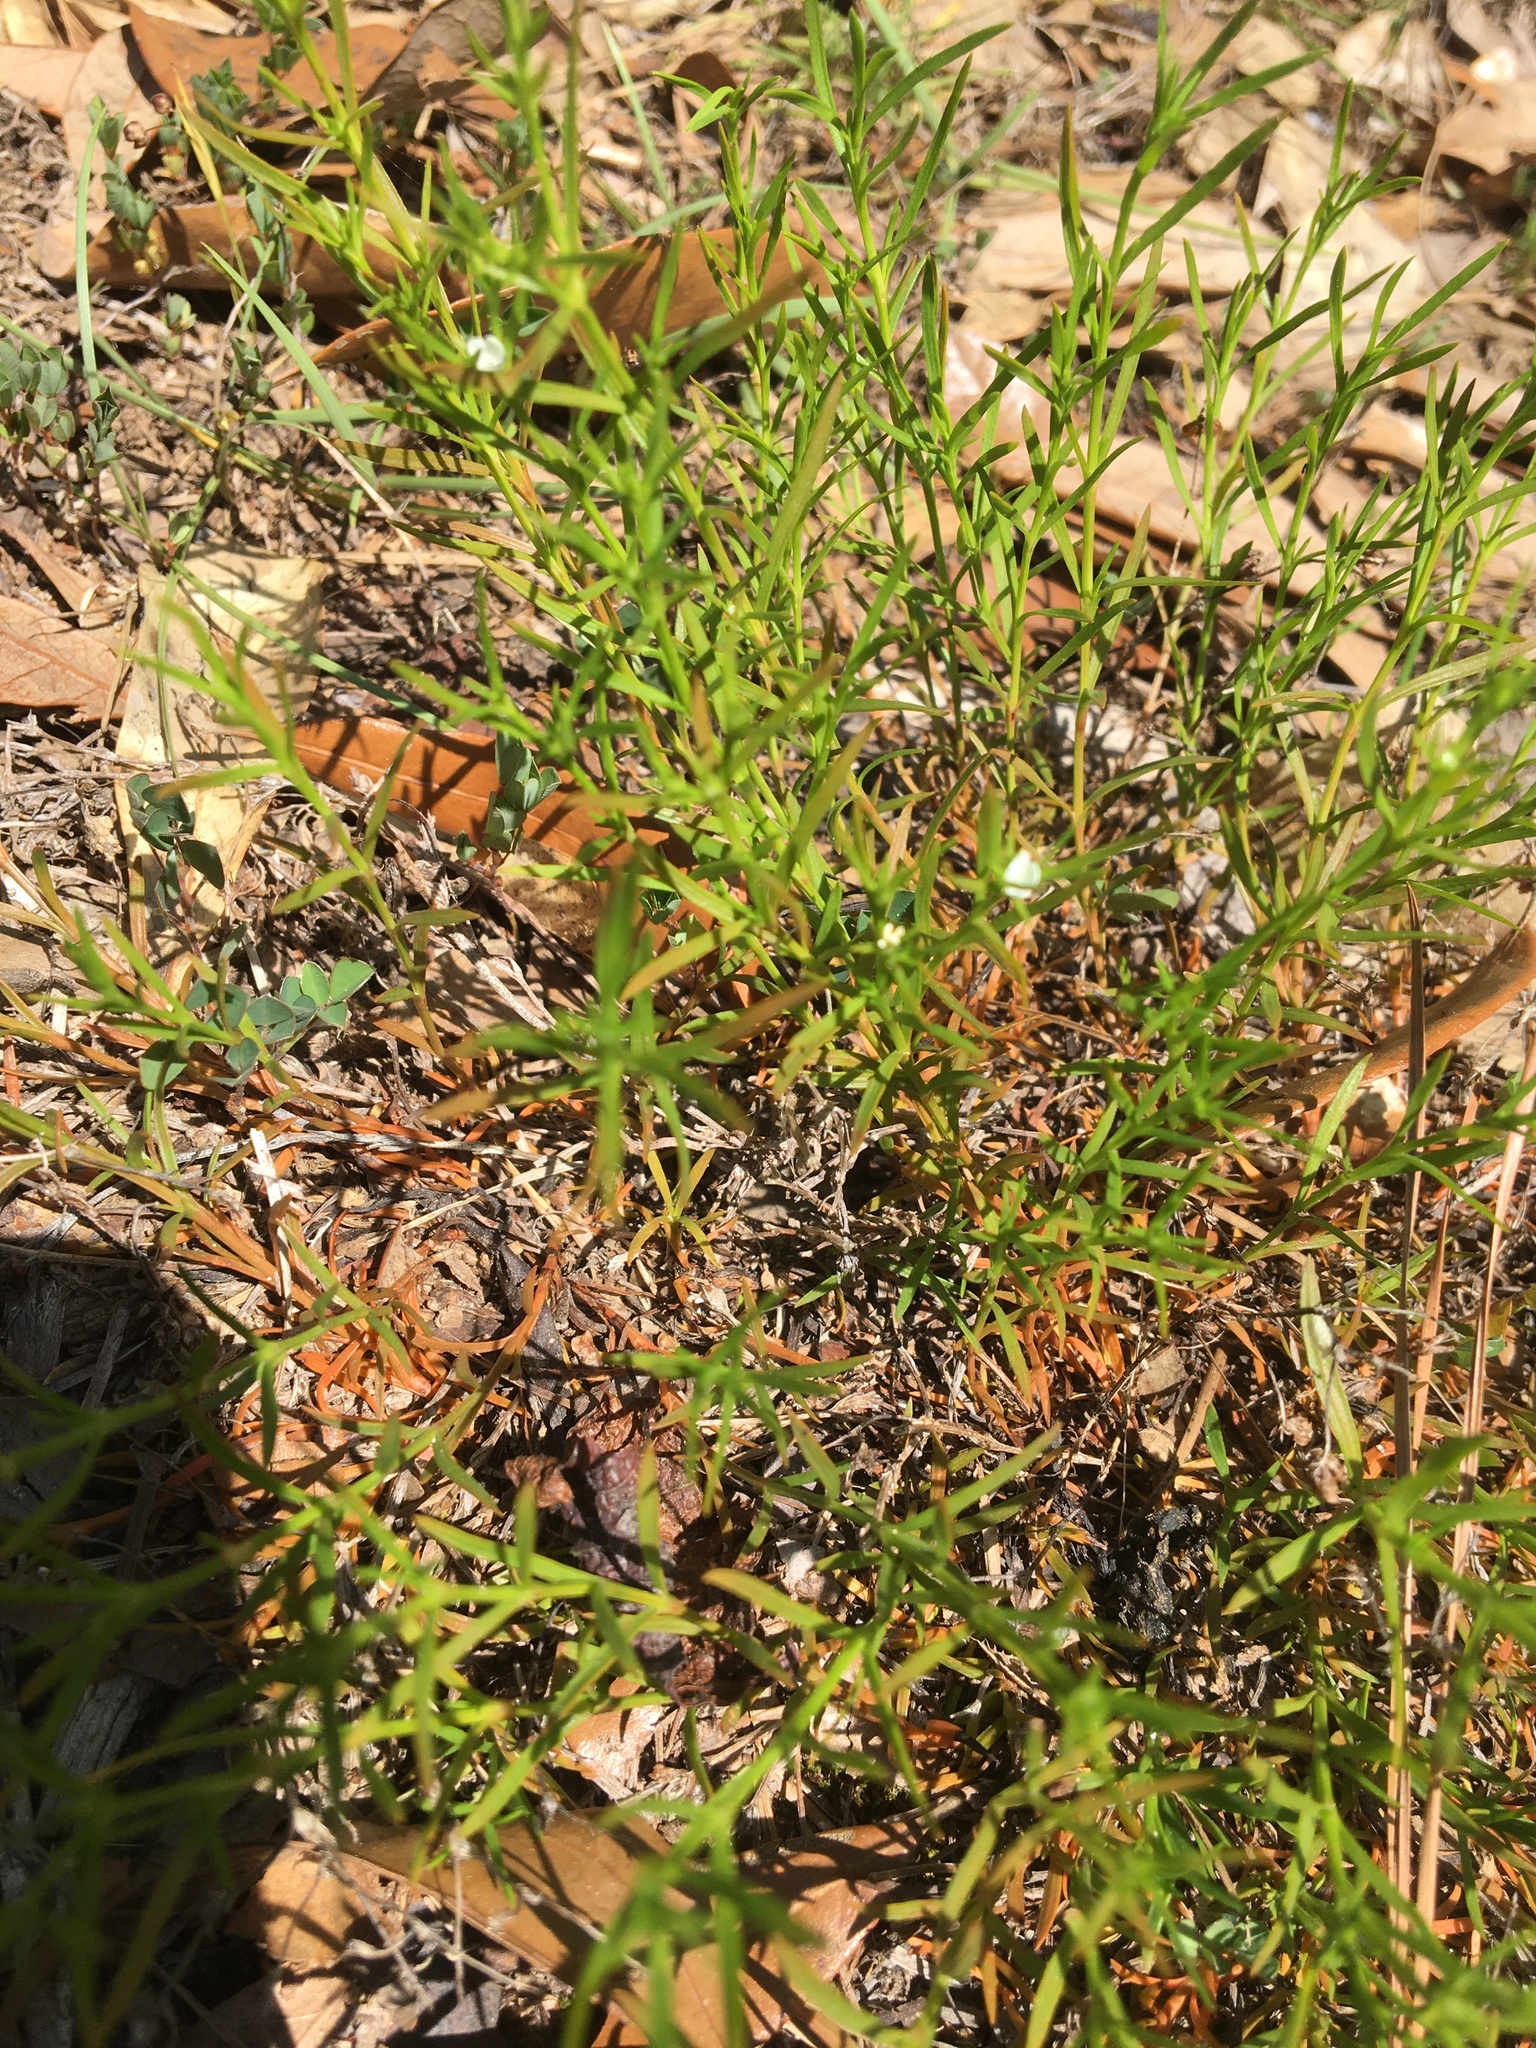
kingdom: Plantae
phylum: Tracheophyta
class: Magnoliopsida
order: Lamiales
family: Tetrachondraceae
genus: Polypremum
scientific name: Polypremum procumbens
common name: Juniper-leaf
